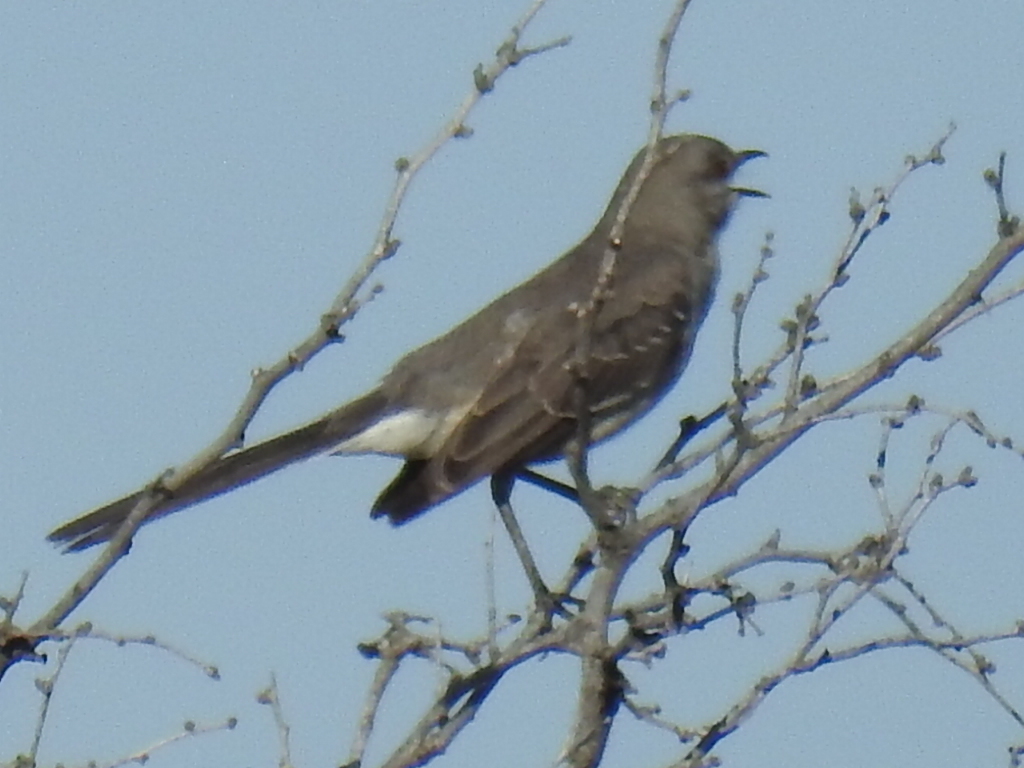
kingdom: Animalia
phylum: Chordata
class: Aves
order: Passeriformes
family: Mimidae
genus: Mimus
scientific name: Mimus polyglottos
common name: Northern mockingbird
